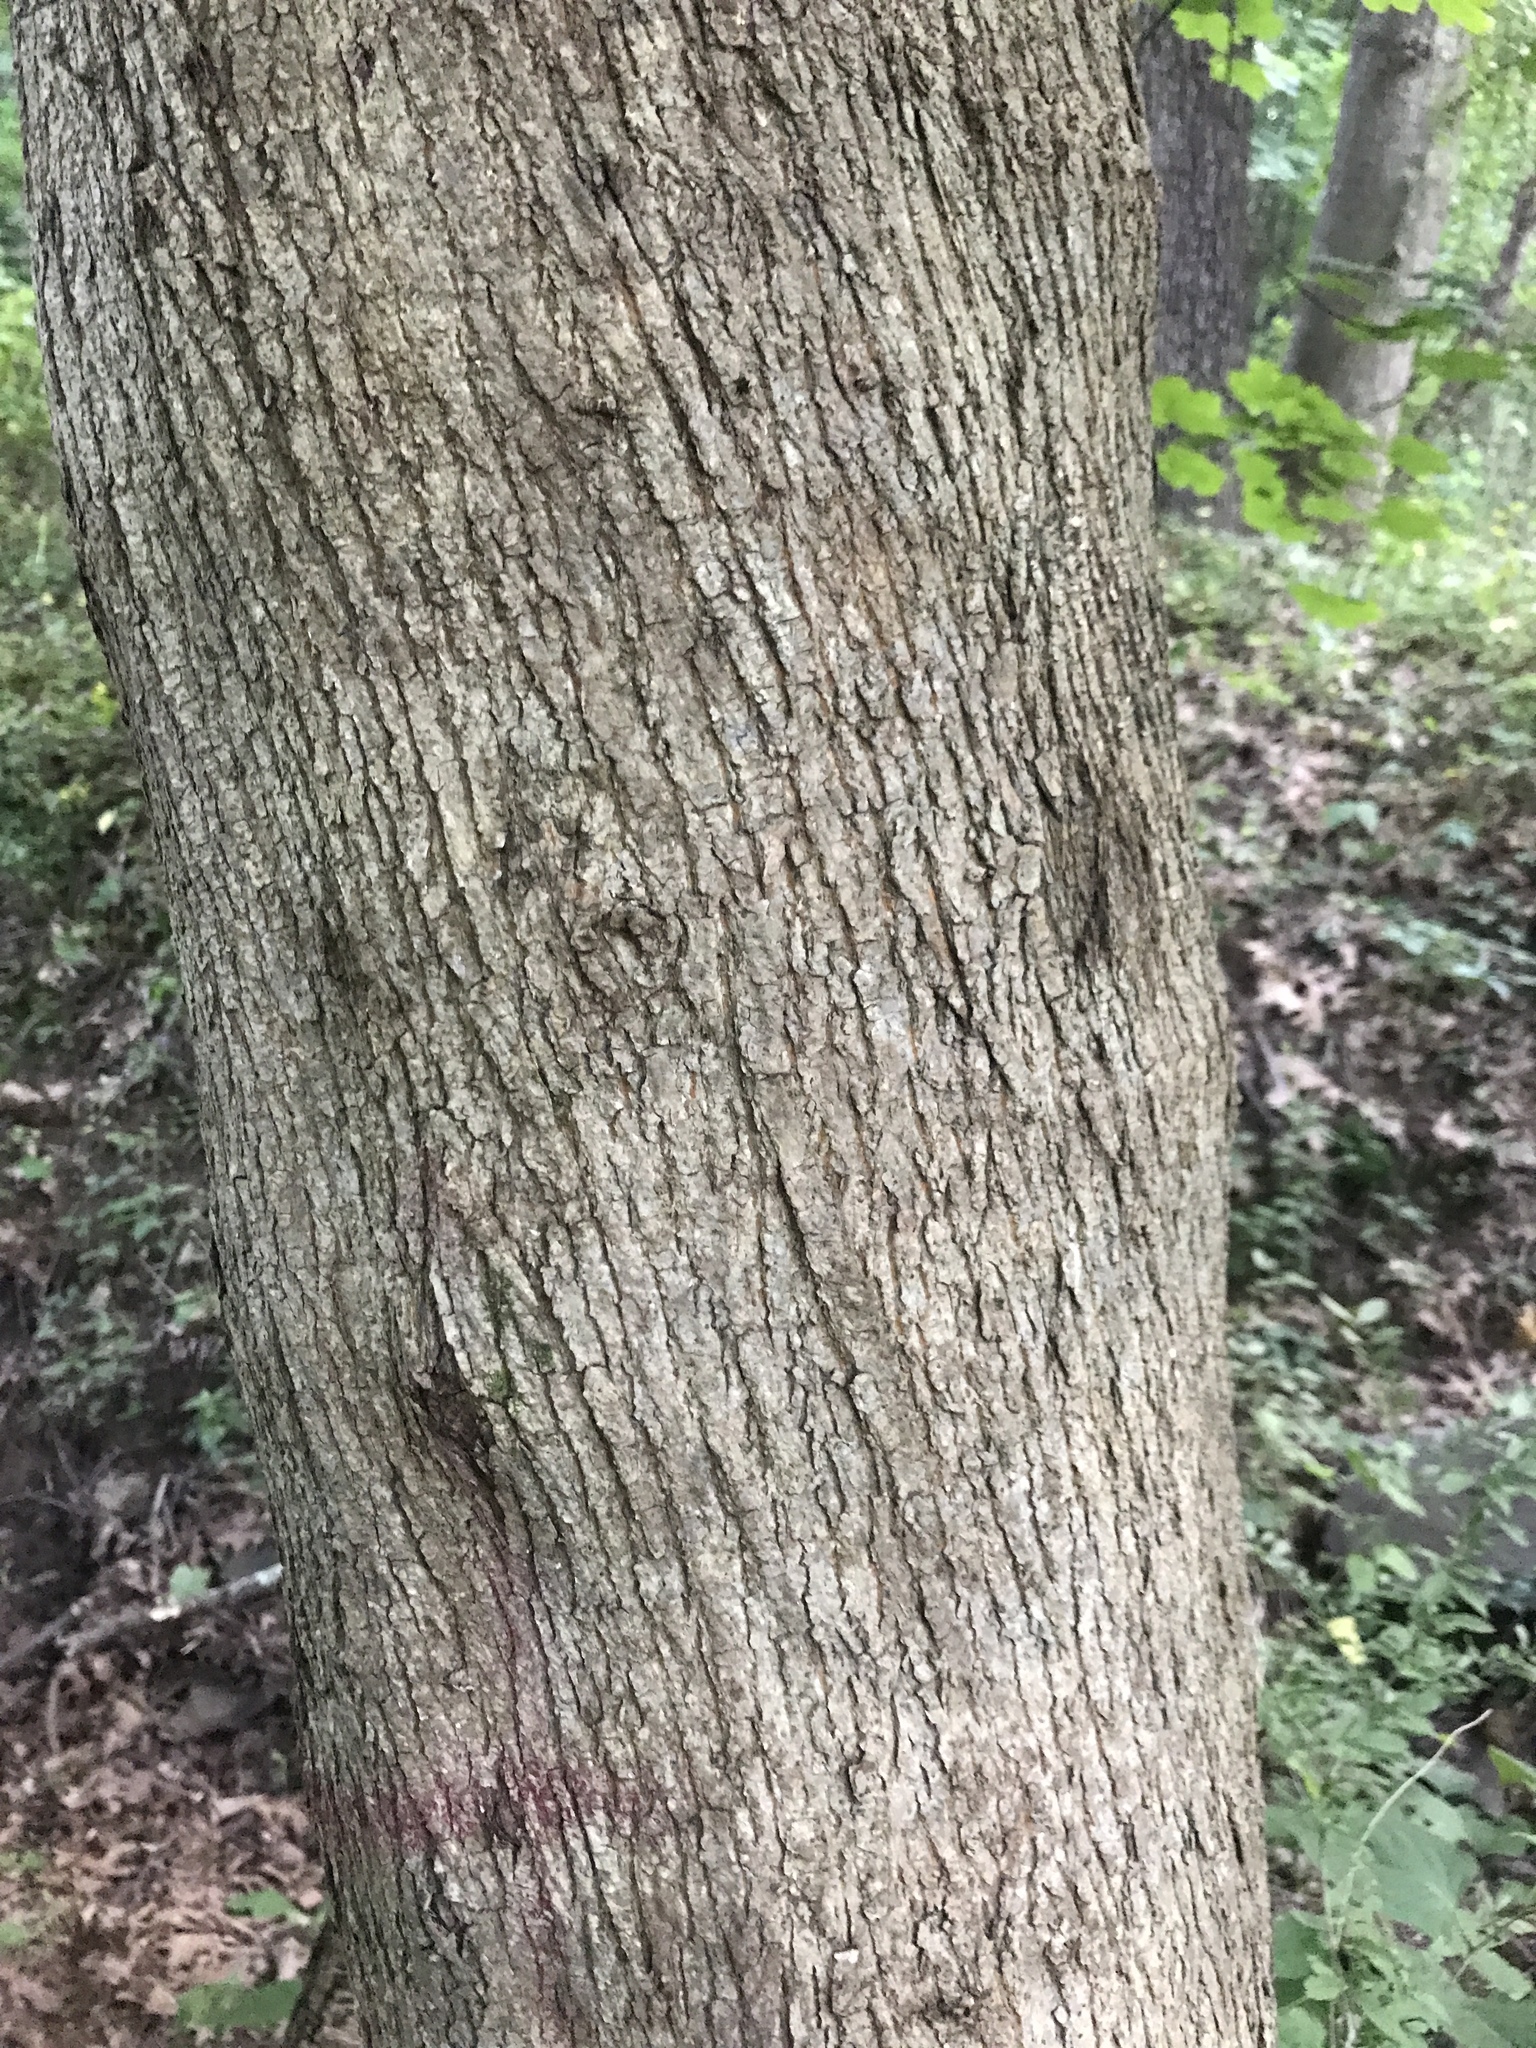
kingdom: Plantae
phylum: Tracheophyta
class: Magnoliopsida
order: Sapindales
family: Sapindaceae
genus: Acer
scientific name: Acer platanoides
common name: Norway maple
